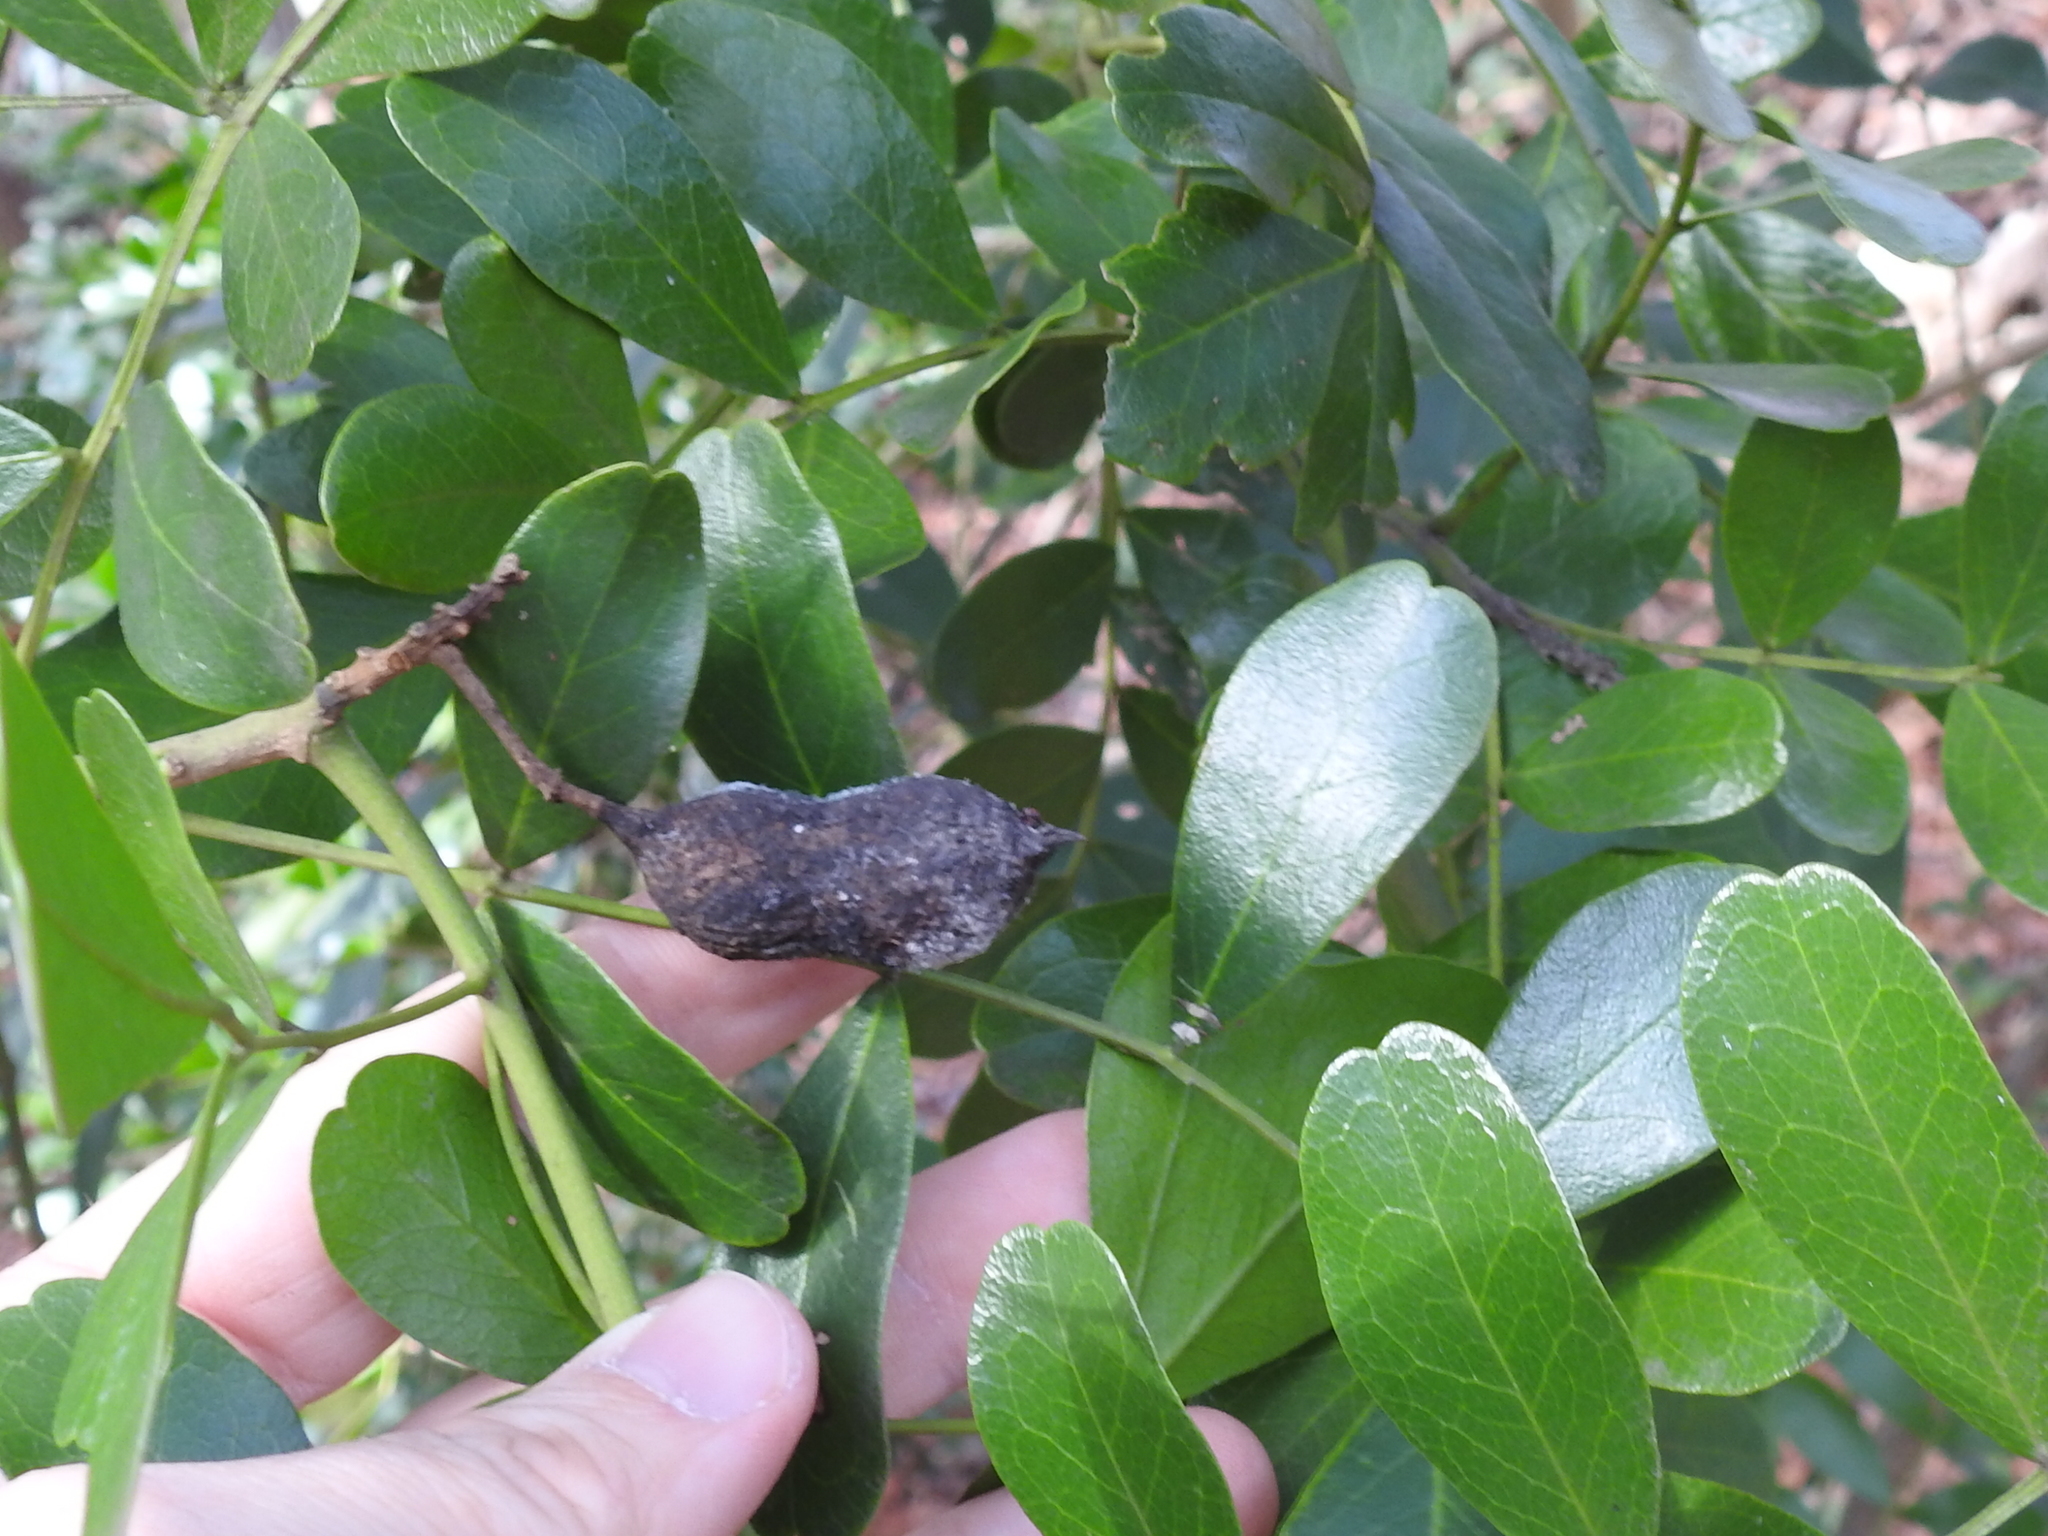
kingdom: Plantae
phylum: Tracheophyta
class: Magnoliopsida
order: Fabales
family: Fabaceae
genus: Dermatophyllum
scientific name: Dermatophyllum secundiflorum
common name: Texas-mountain-laurel
